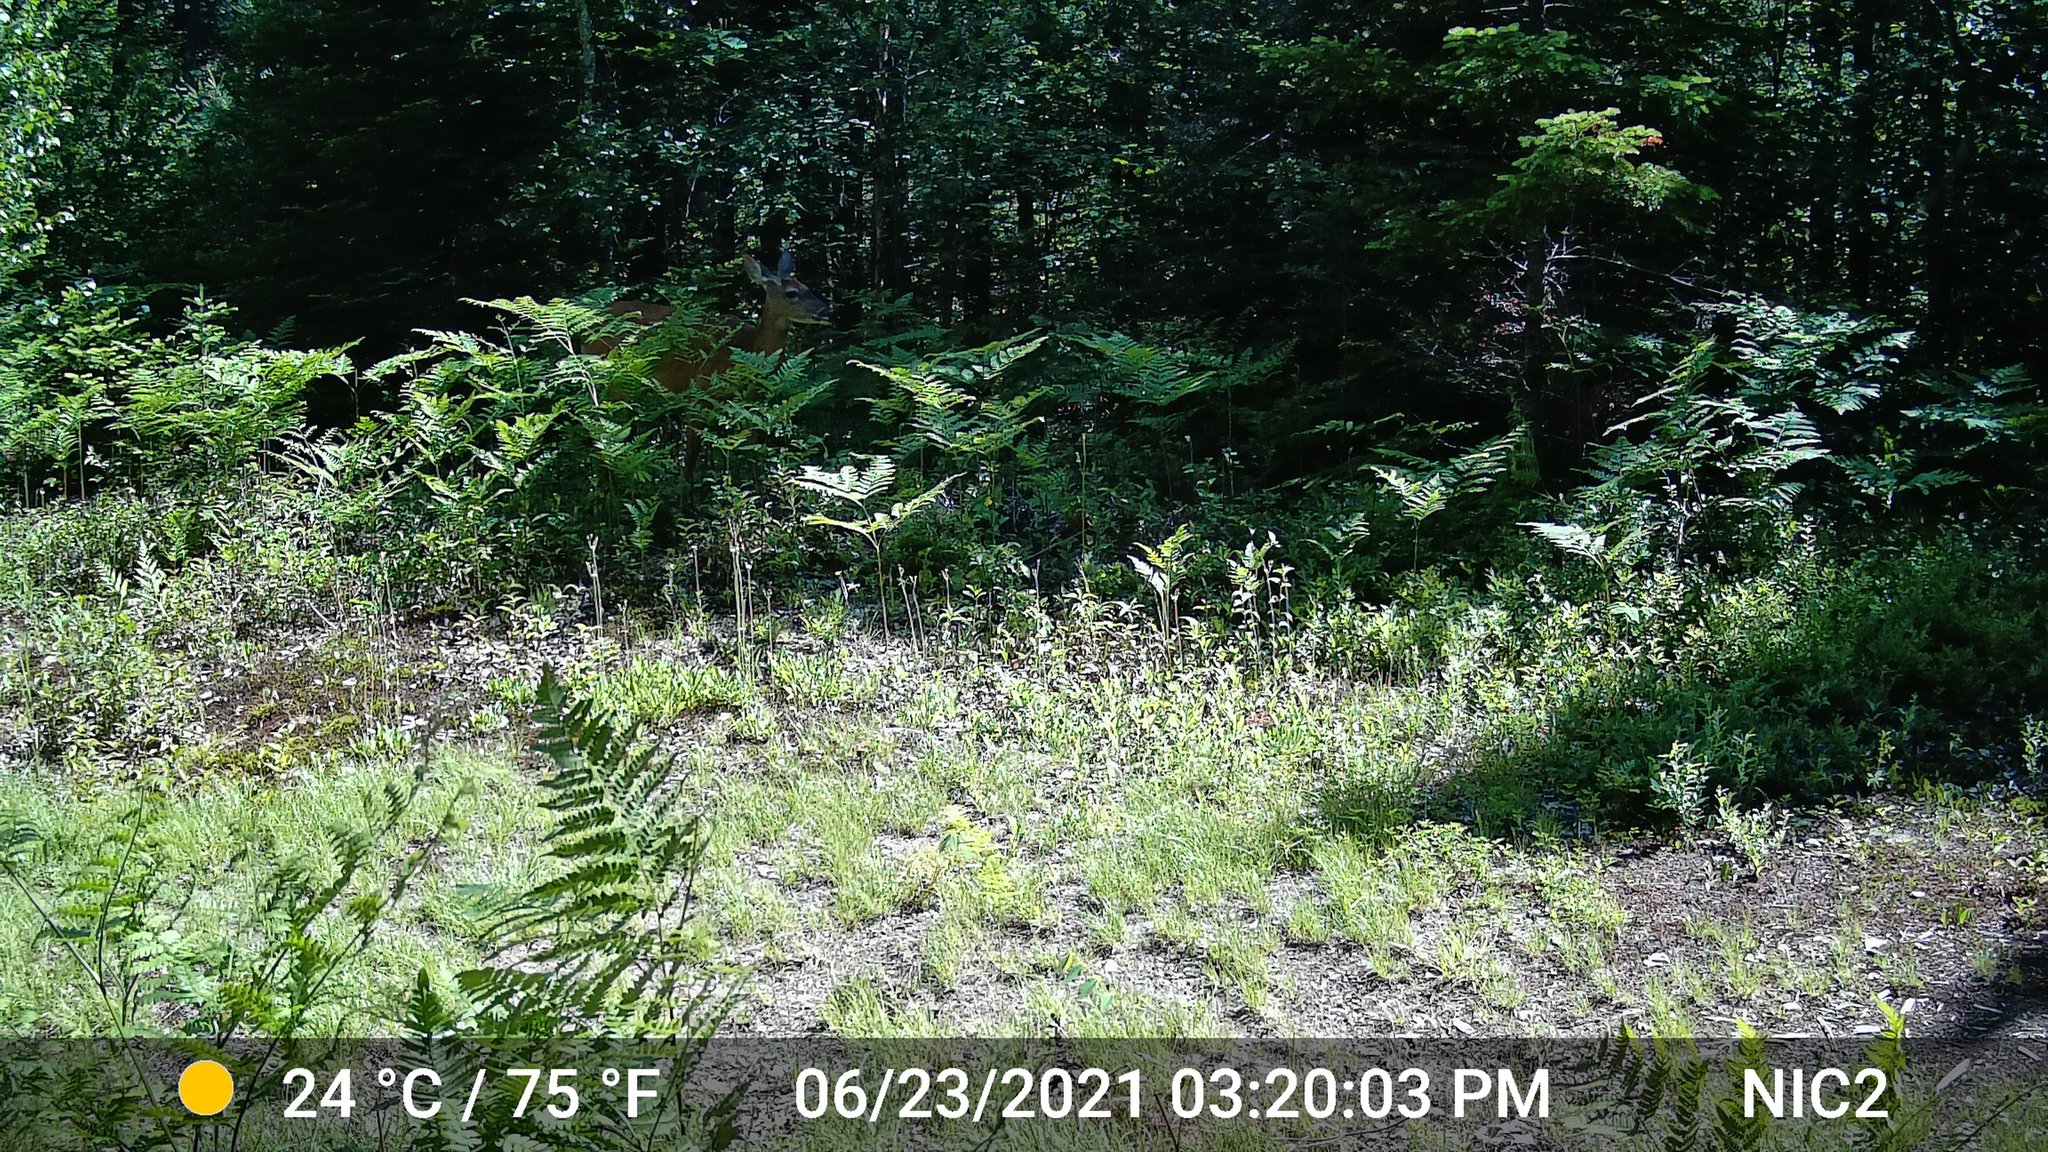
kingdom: Animalia
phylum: Chordata
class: Mammalia
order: Artiodactyla
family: Cervidae
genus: Odocoileus
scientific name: Odocoileus virginianus
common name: White-tailed deer
